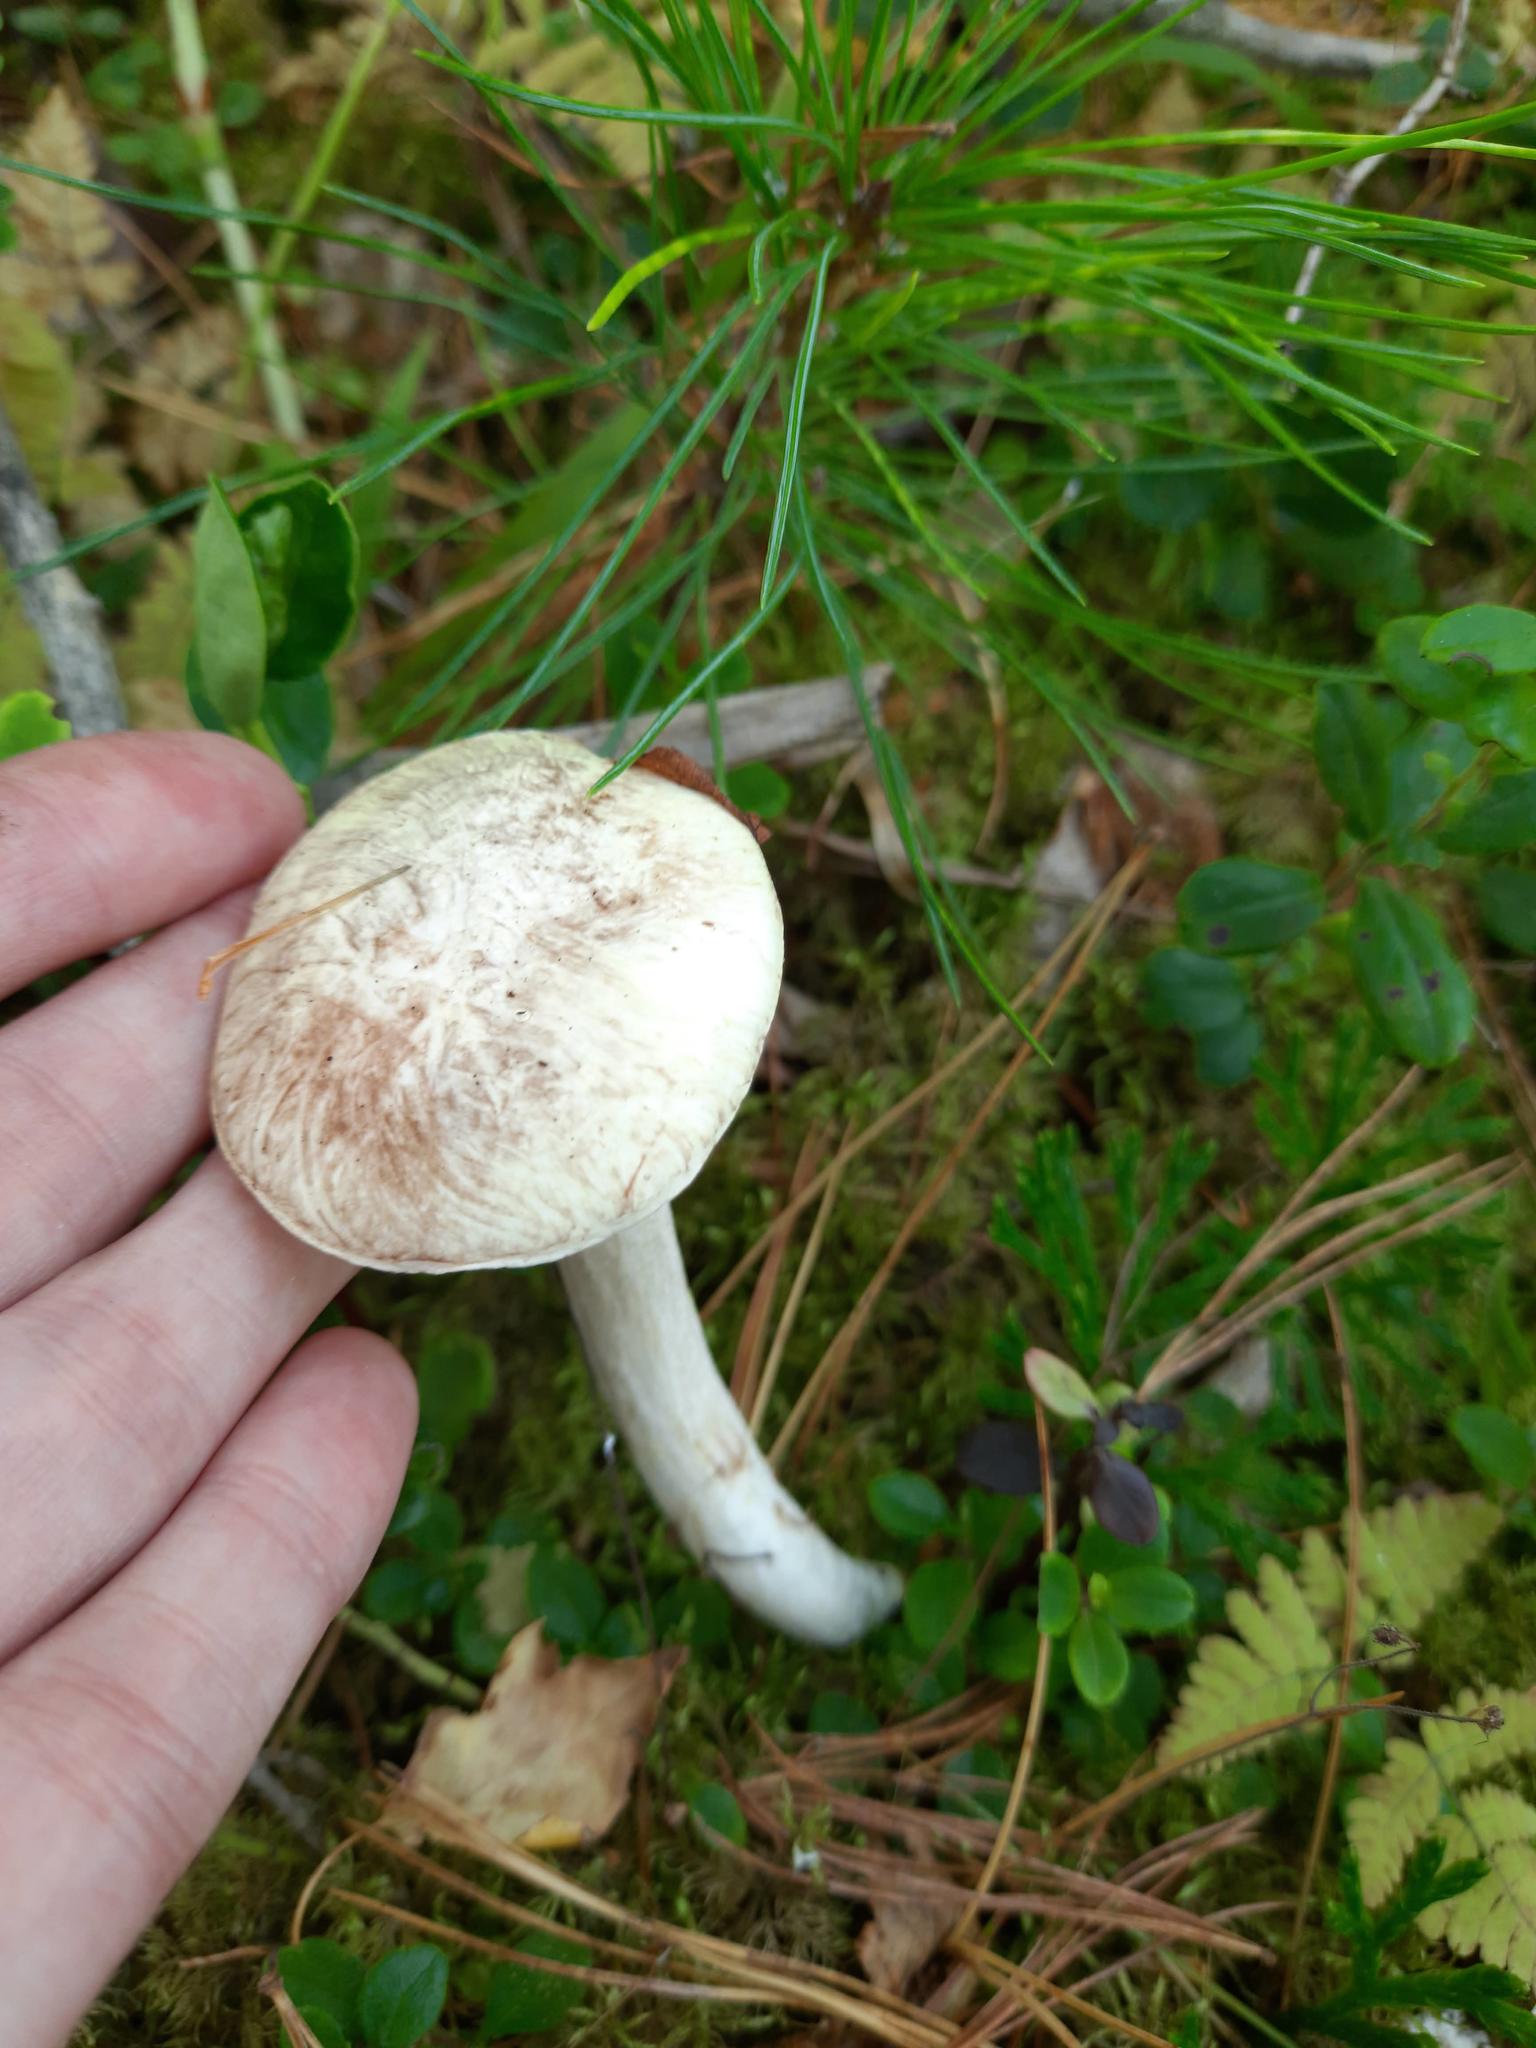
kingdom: Fungi
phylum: Basidiomycota
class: Agaricomycetes
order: Boletales
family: Suillaceae
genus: Suillus
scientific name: Suillus placidus
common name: Slippery white bolete
